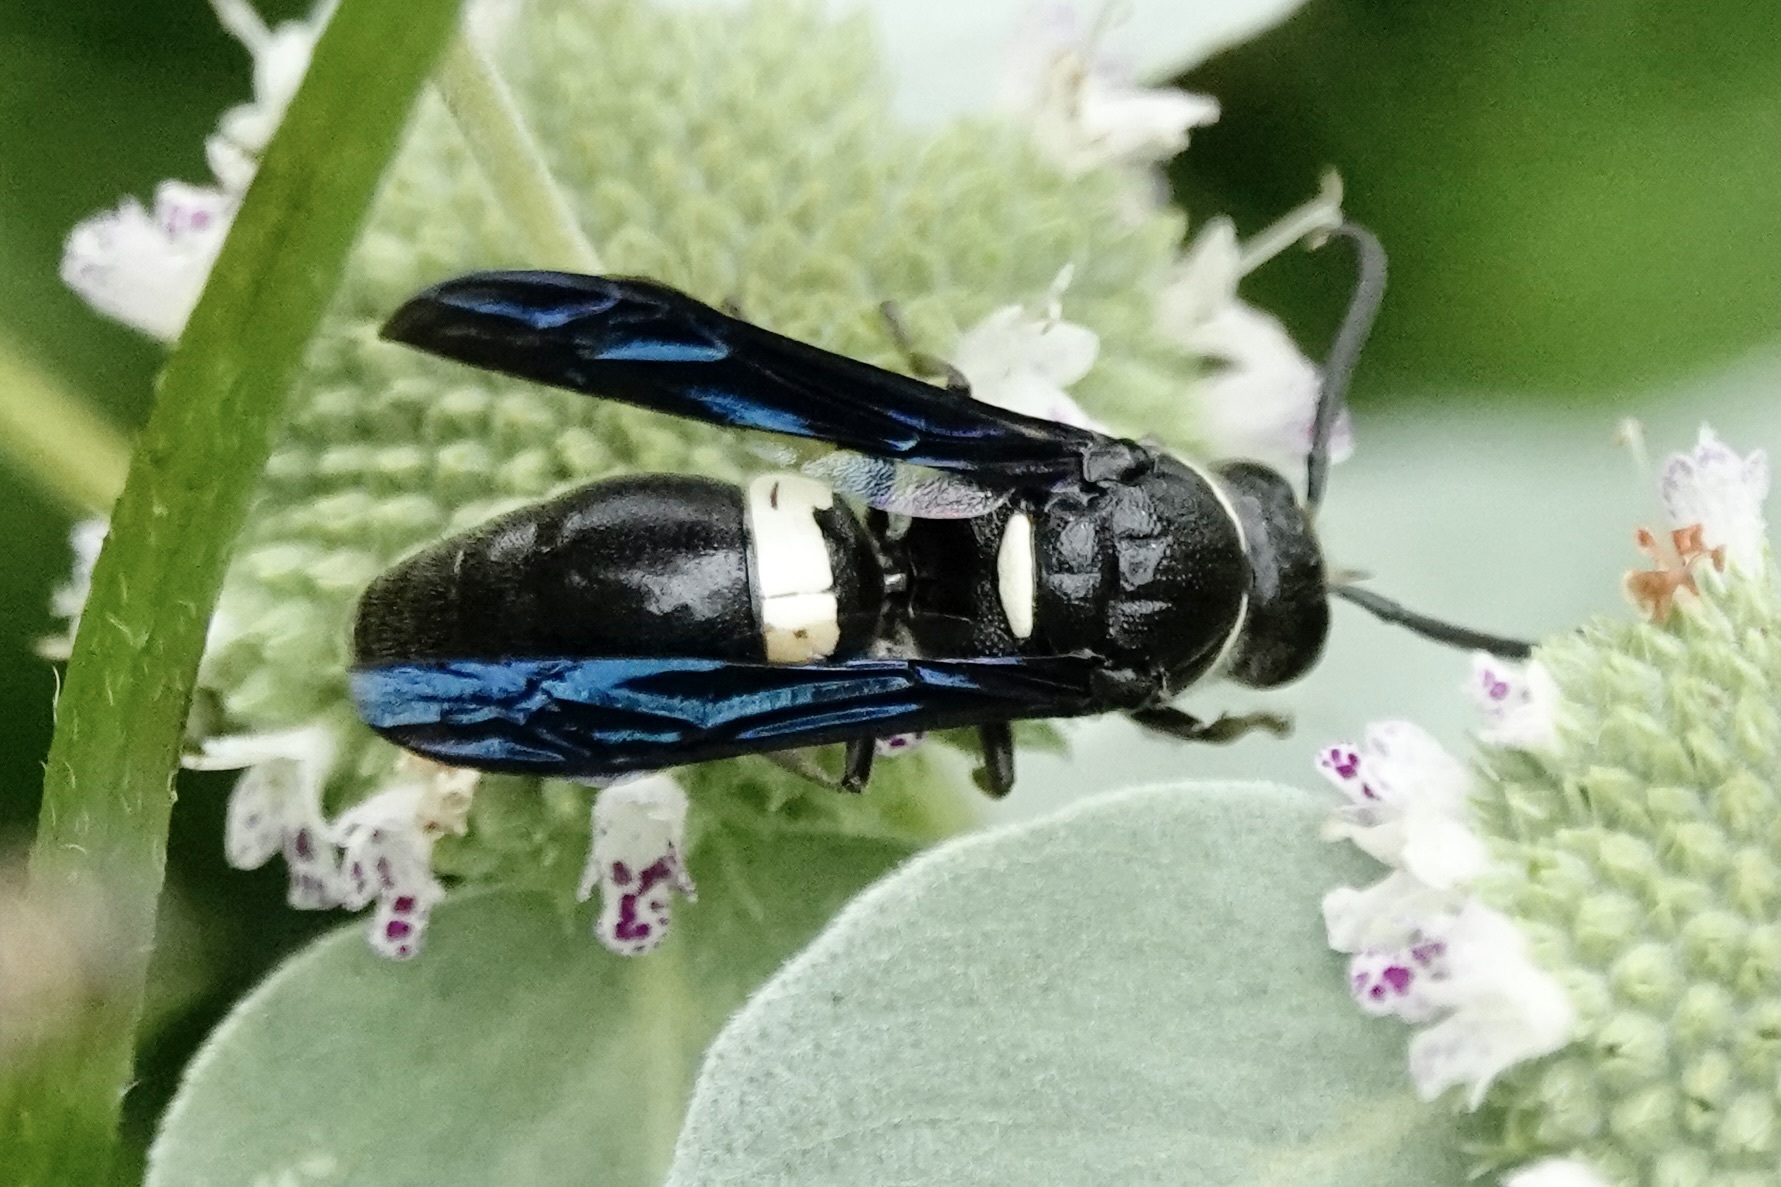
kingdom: Animalia
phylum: Arthropoda
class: Insecta
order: Hymenoptera
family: Eumenidae
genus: Monobia
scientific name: Monobia quadridens
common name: Four-toothed mason wasp
